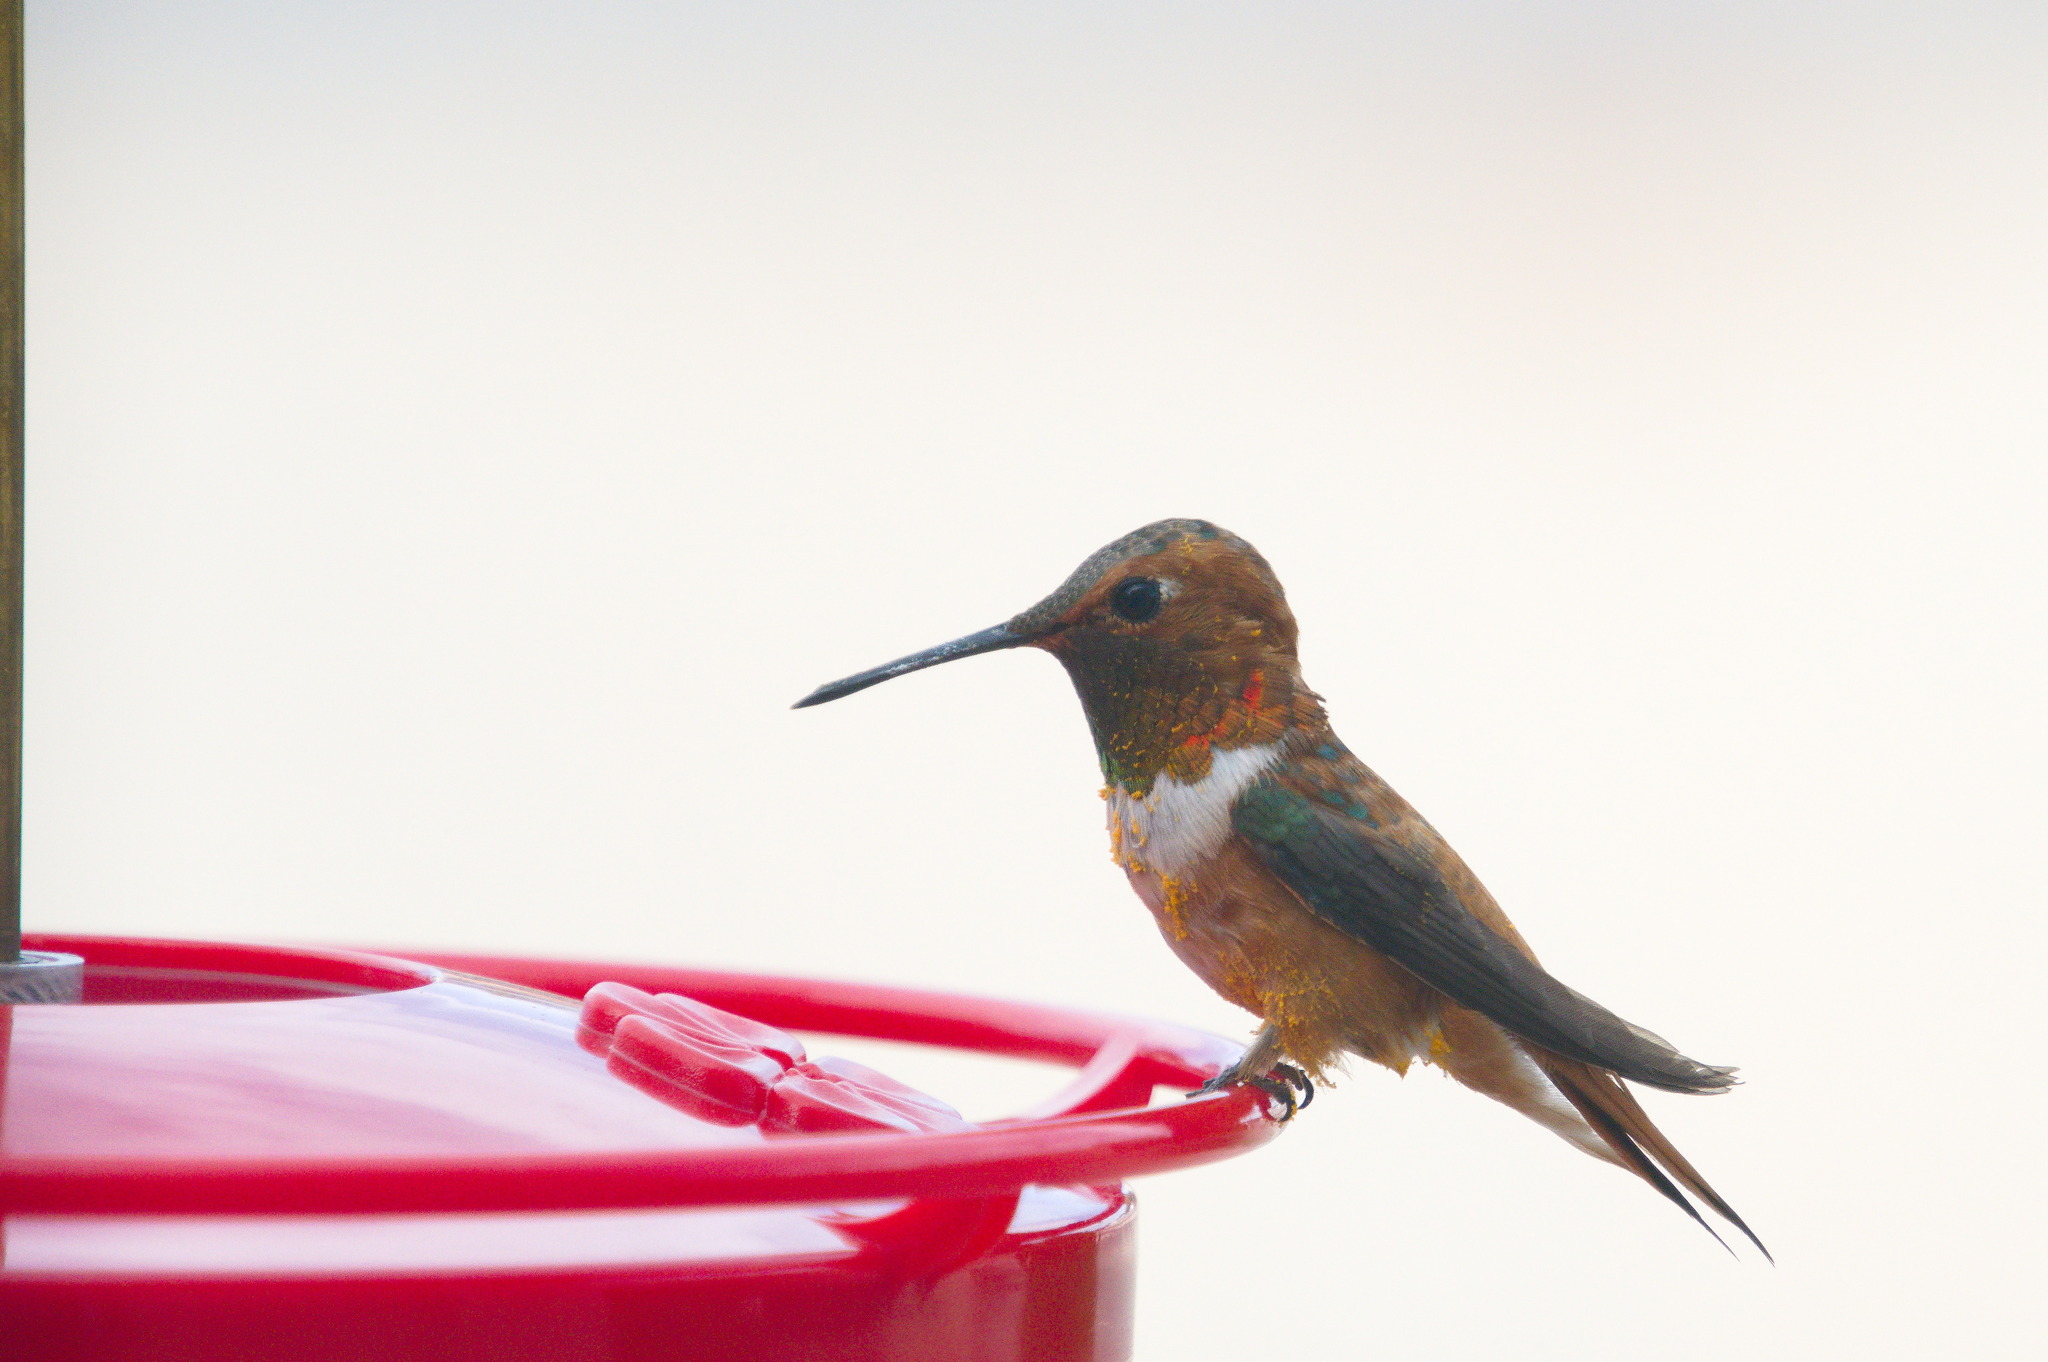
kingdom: Animalia
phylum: Chordata
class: Aves
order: Apodiformes
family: Trochilidae
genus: Selasphorus
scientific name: Selasphorus rufus
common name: Rufous hummingbird
